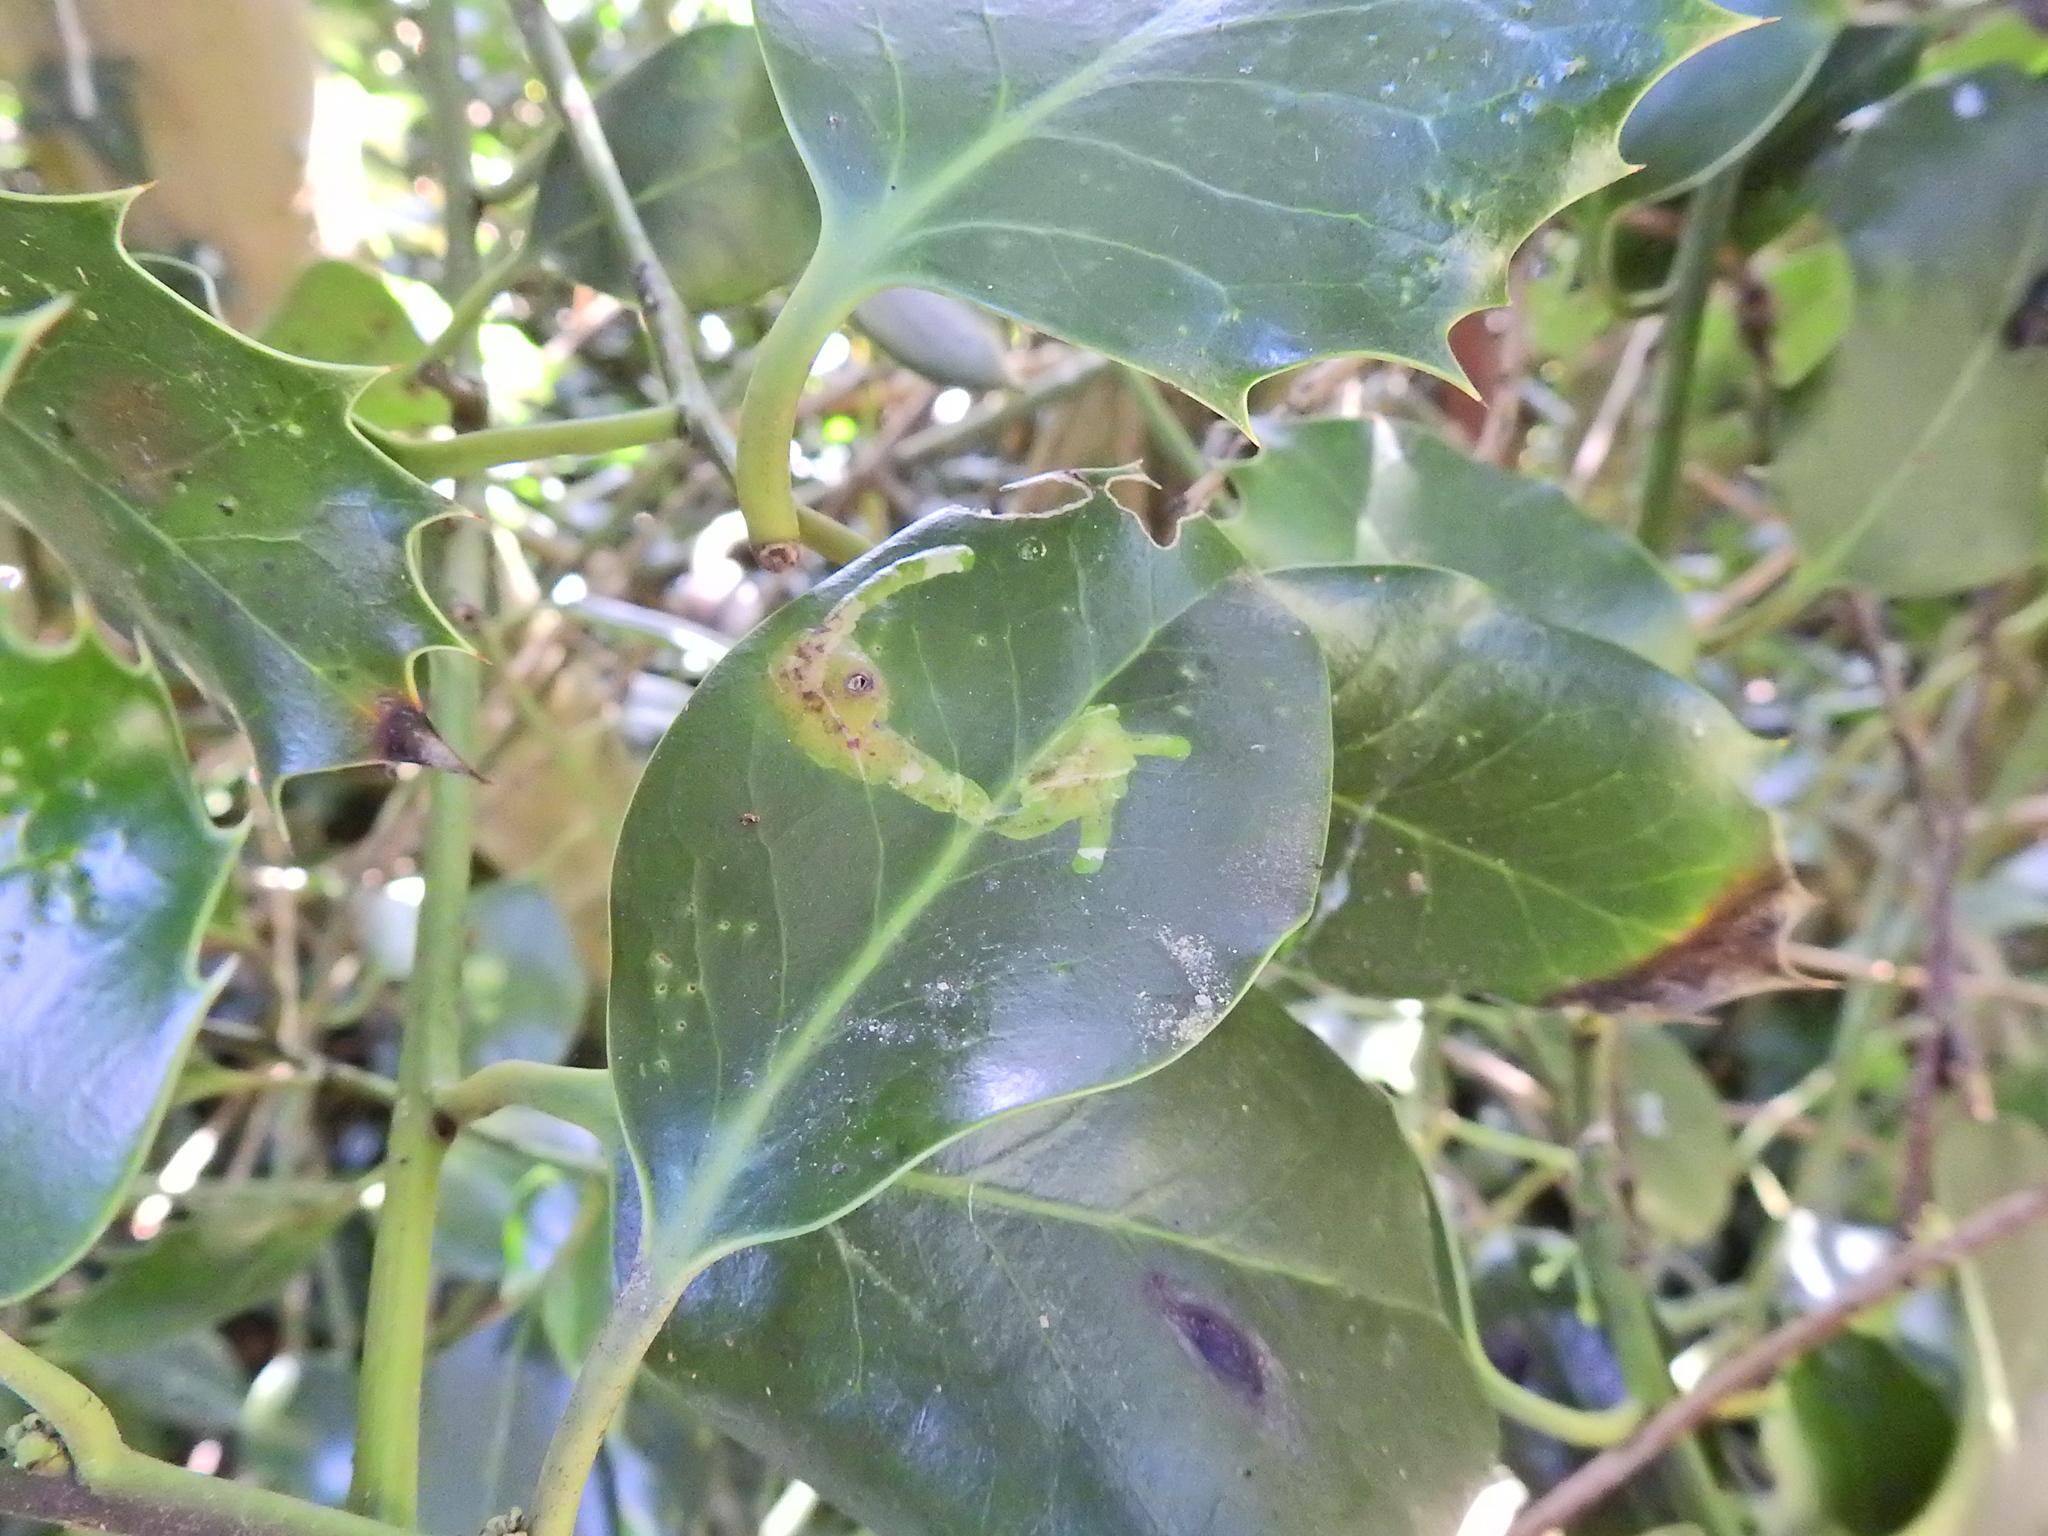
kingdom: Animalia
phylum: Arthropoda
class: Insecta
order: Diptera
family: Agromyzidae
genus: Phytomyza
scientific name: Phytomyza ilicis
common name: Holly leafminer
